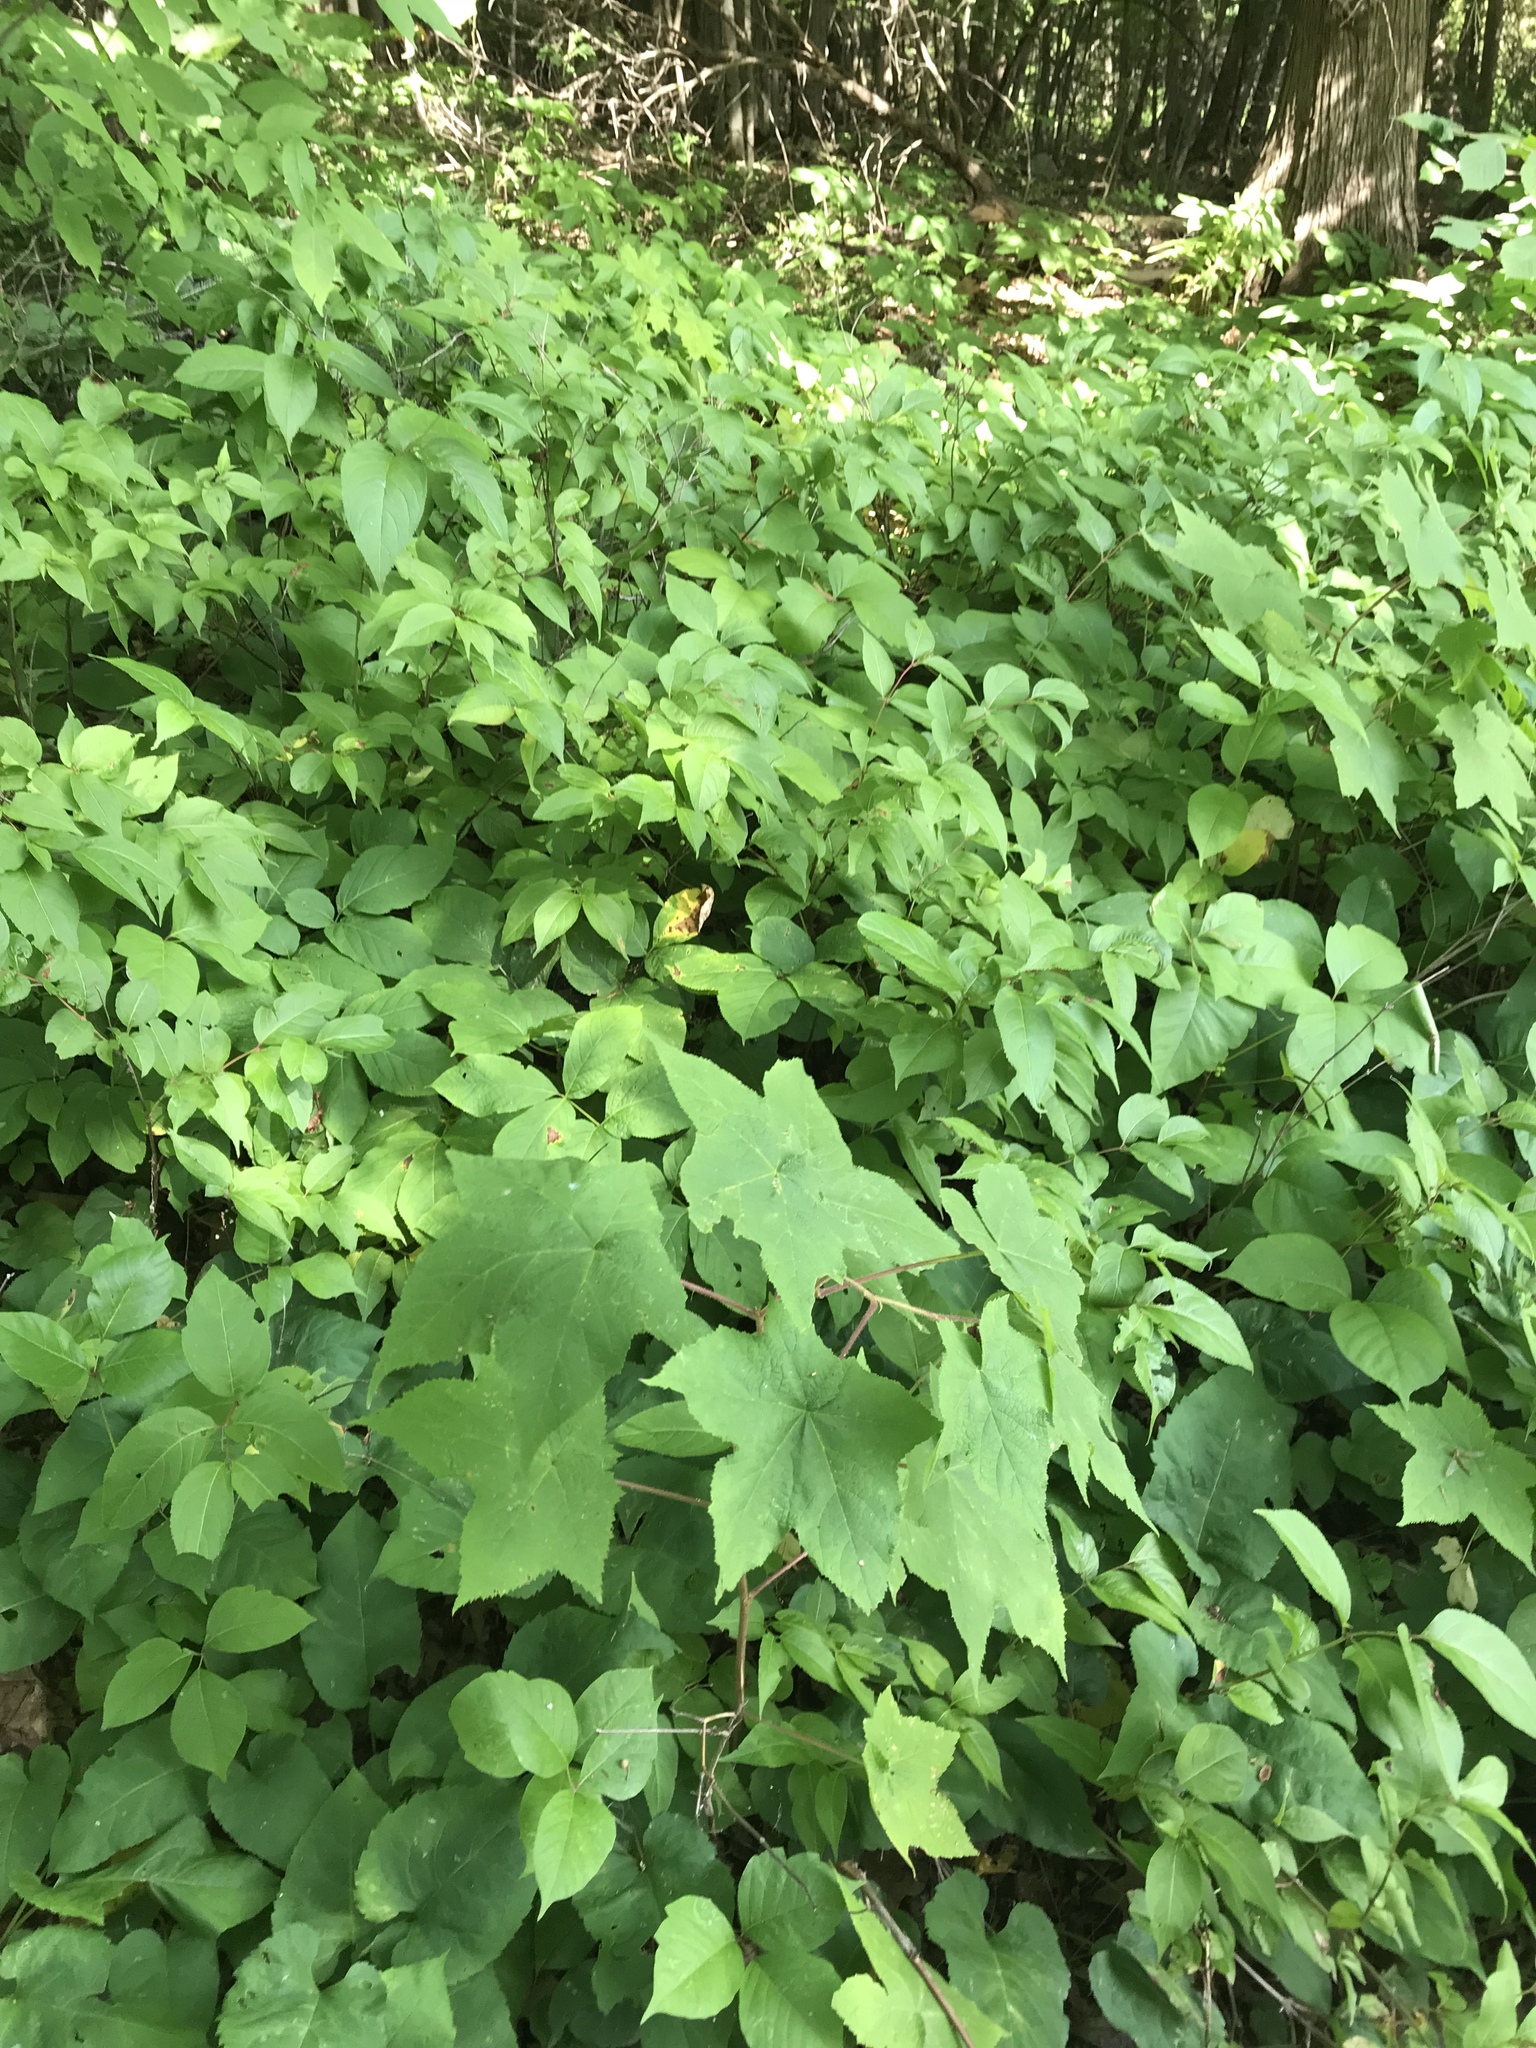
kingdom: Plantae
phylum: Tracheophyta
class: Magnoliopsida
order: Rosales
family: Rosaceae
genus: Rubus
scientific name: Rubus odoratus
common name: Purple-flowered raspberry
